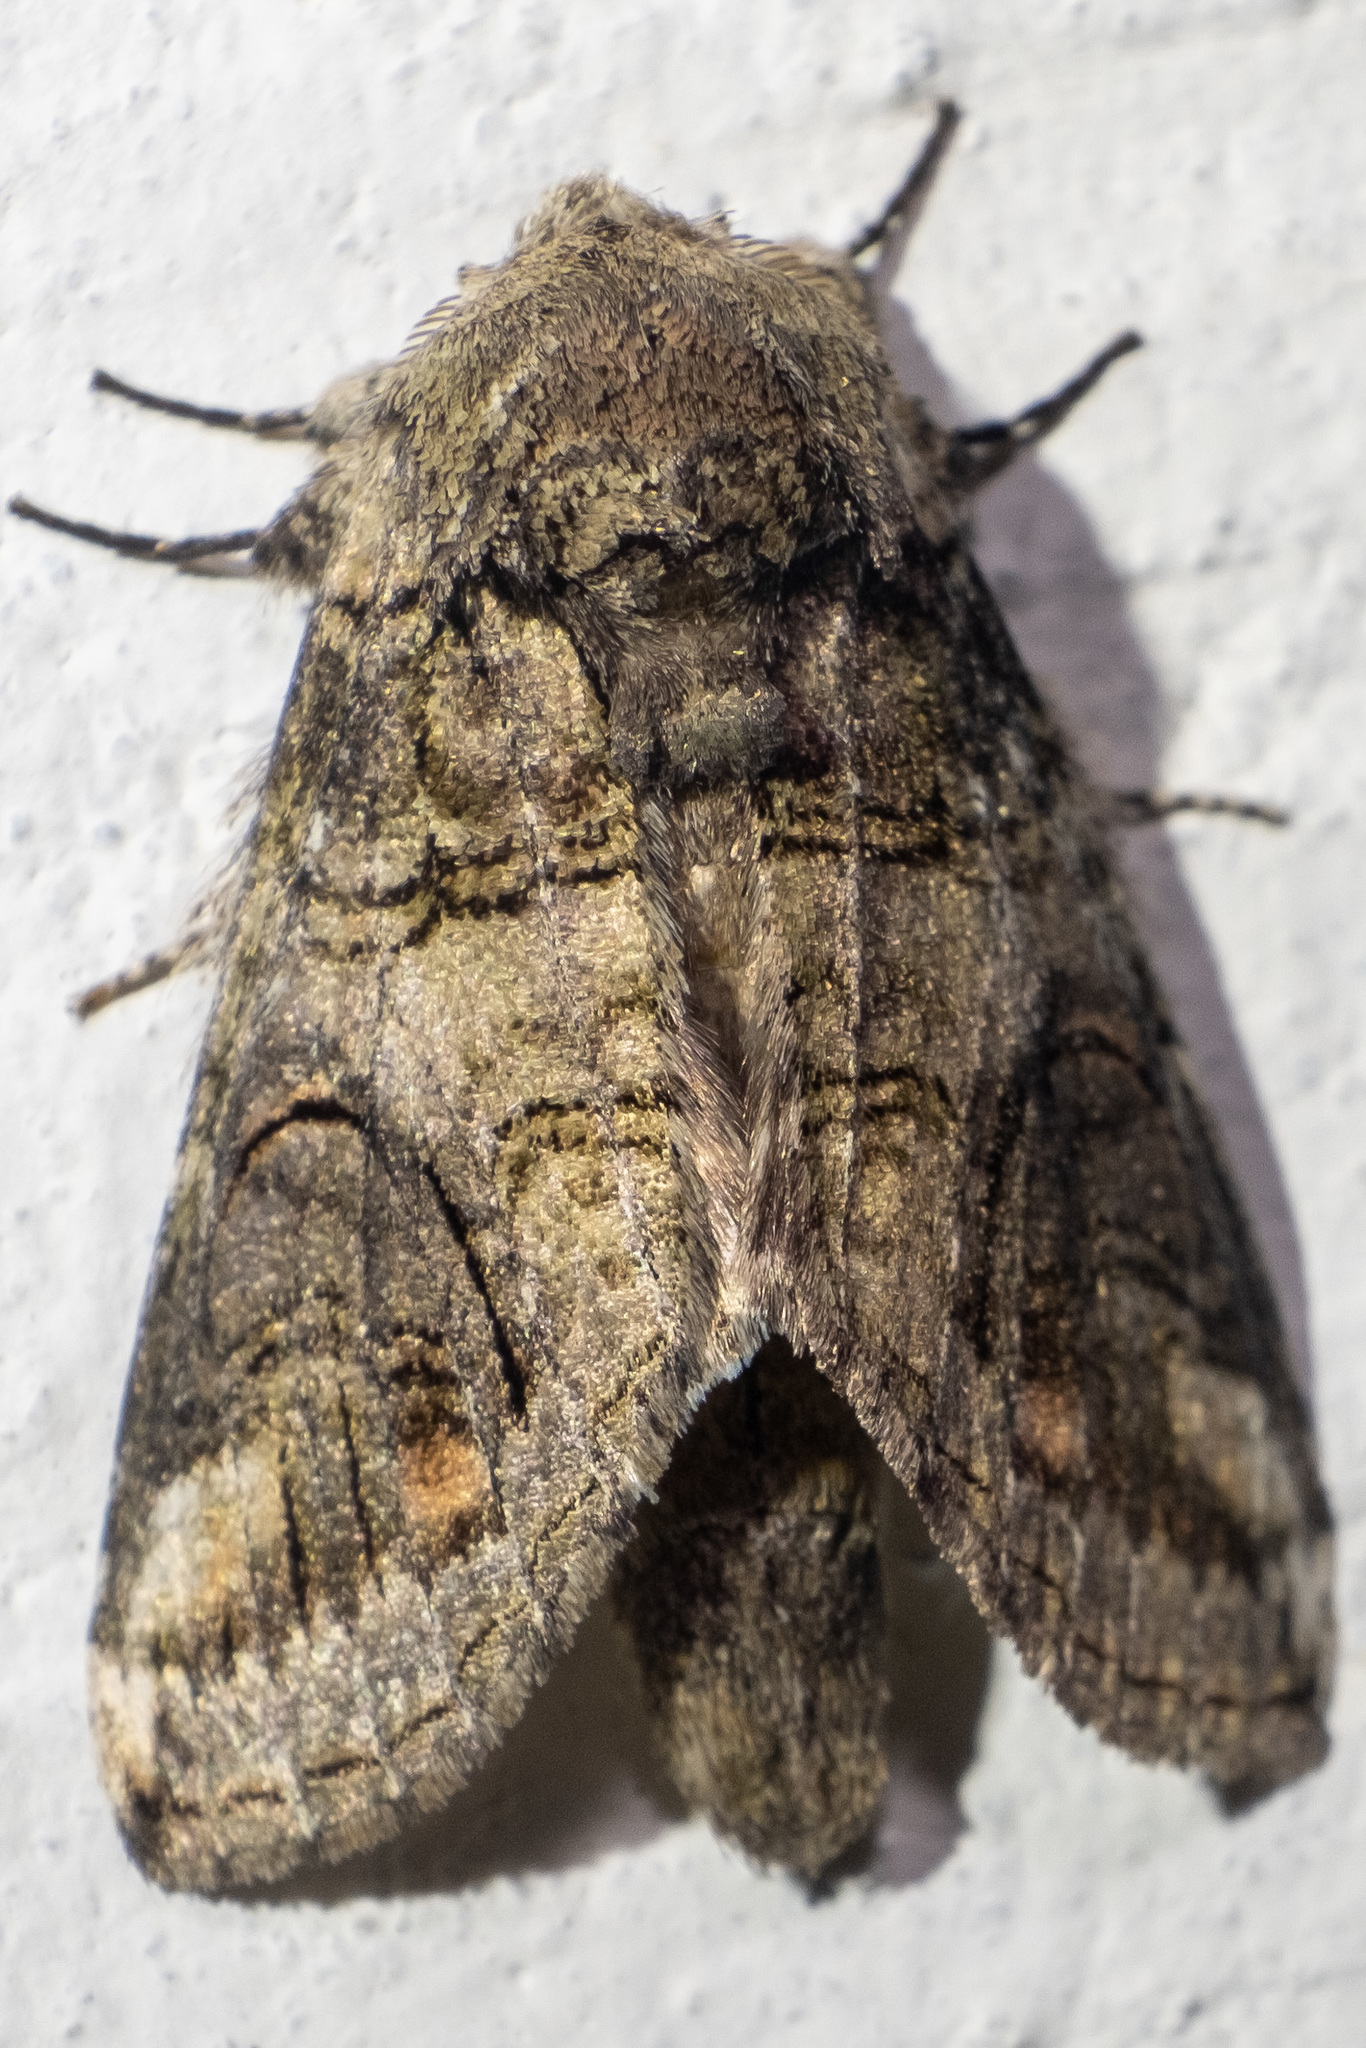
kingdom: Animalia
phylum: Arthropoda
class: Insecta
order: Lepidoptera
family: Notodontidae
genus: Heterocampa
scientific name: Heterocampa obliqua
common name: Oblique heterocampa
